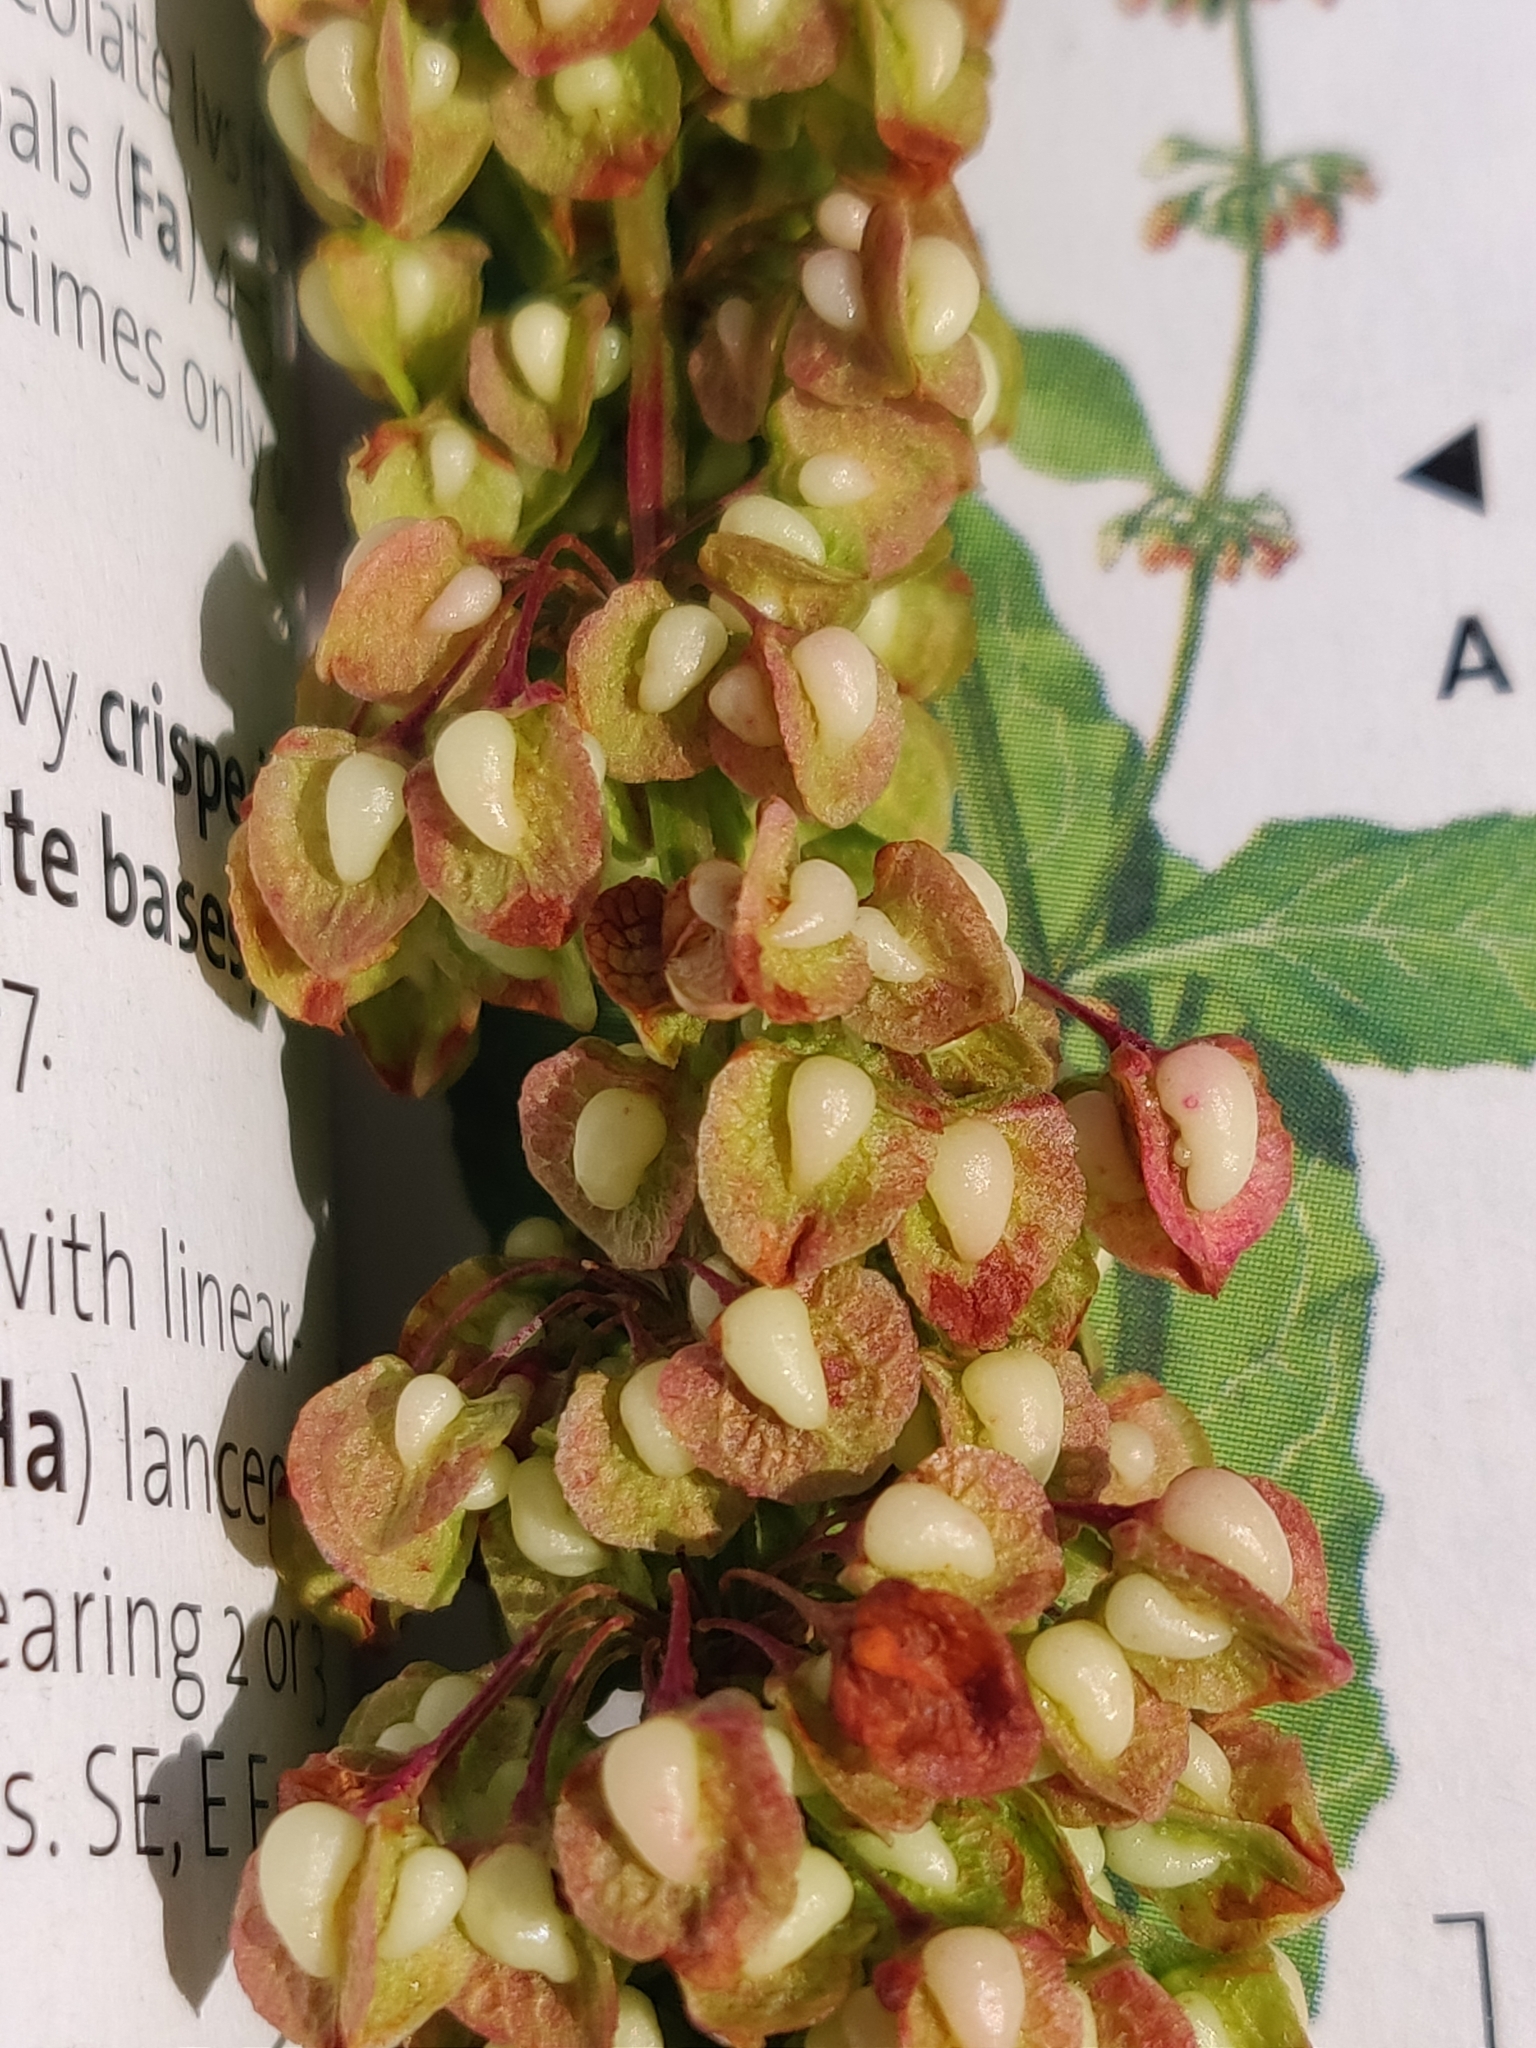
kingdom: Plantae
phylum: Tracheophyta
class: Magnoliopsida
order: Caryophyllales
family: Polygonaceae
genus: Rumex
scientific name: Rumex longifolius
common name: Dooryard dock
